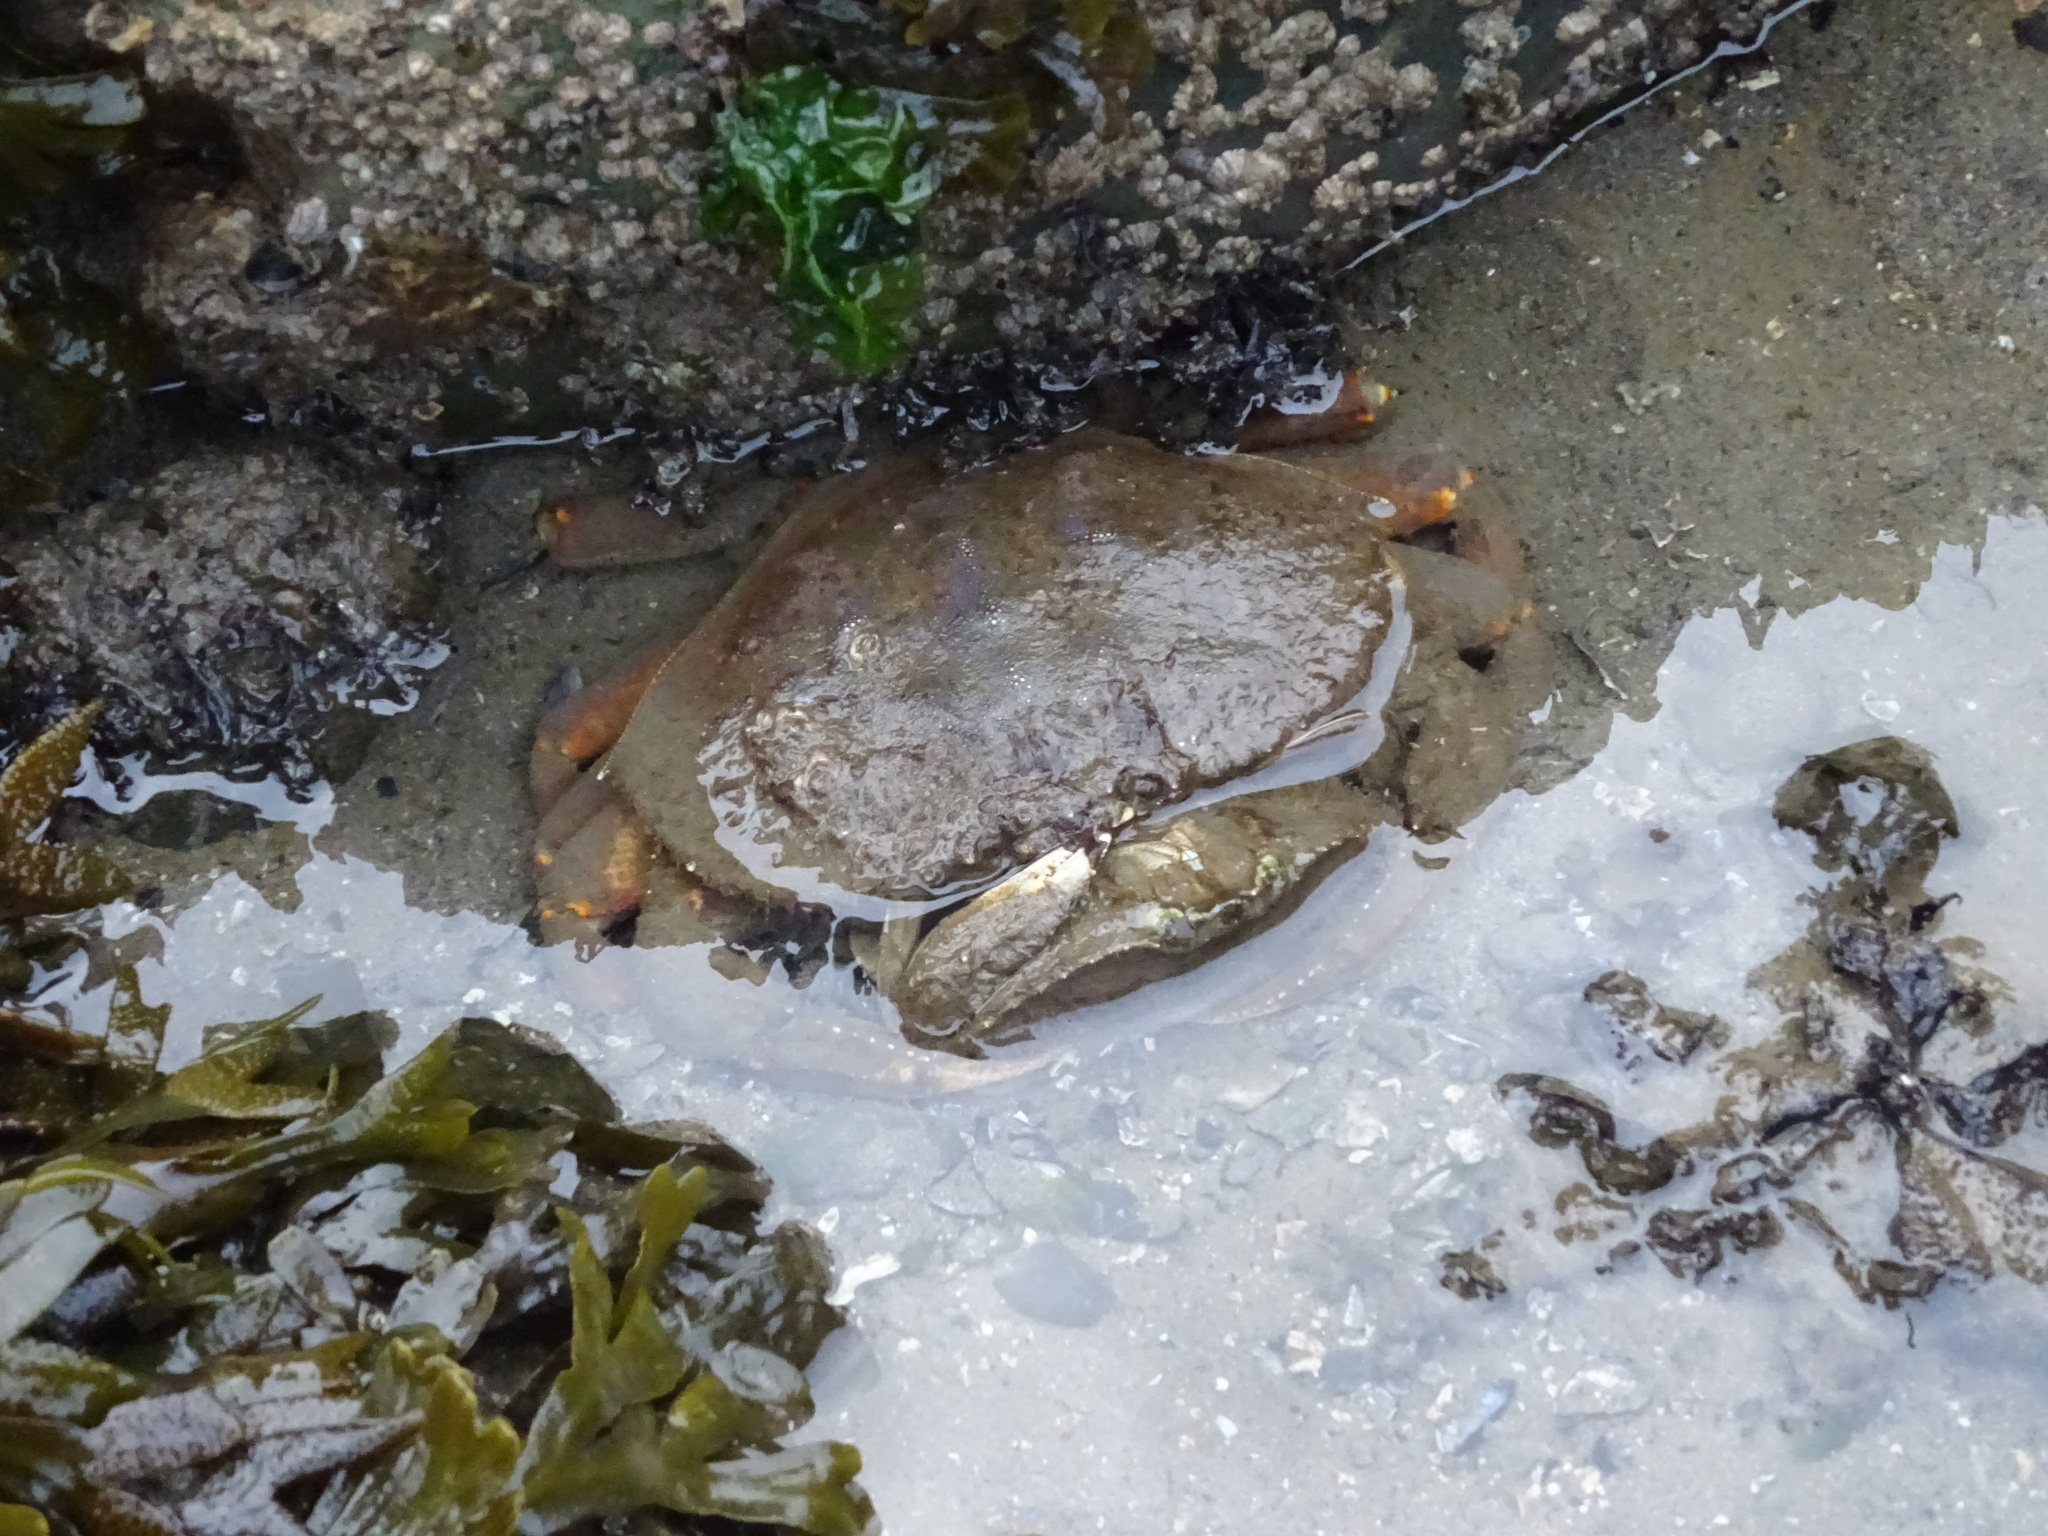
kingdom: Animalia
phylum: Arthropoda
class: Malacostraca
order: Decapoda
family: Cancridae
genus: Metacarcinus
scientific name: Metacarcinus magister
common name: Californian crab
